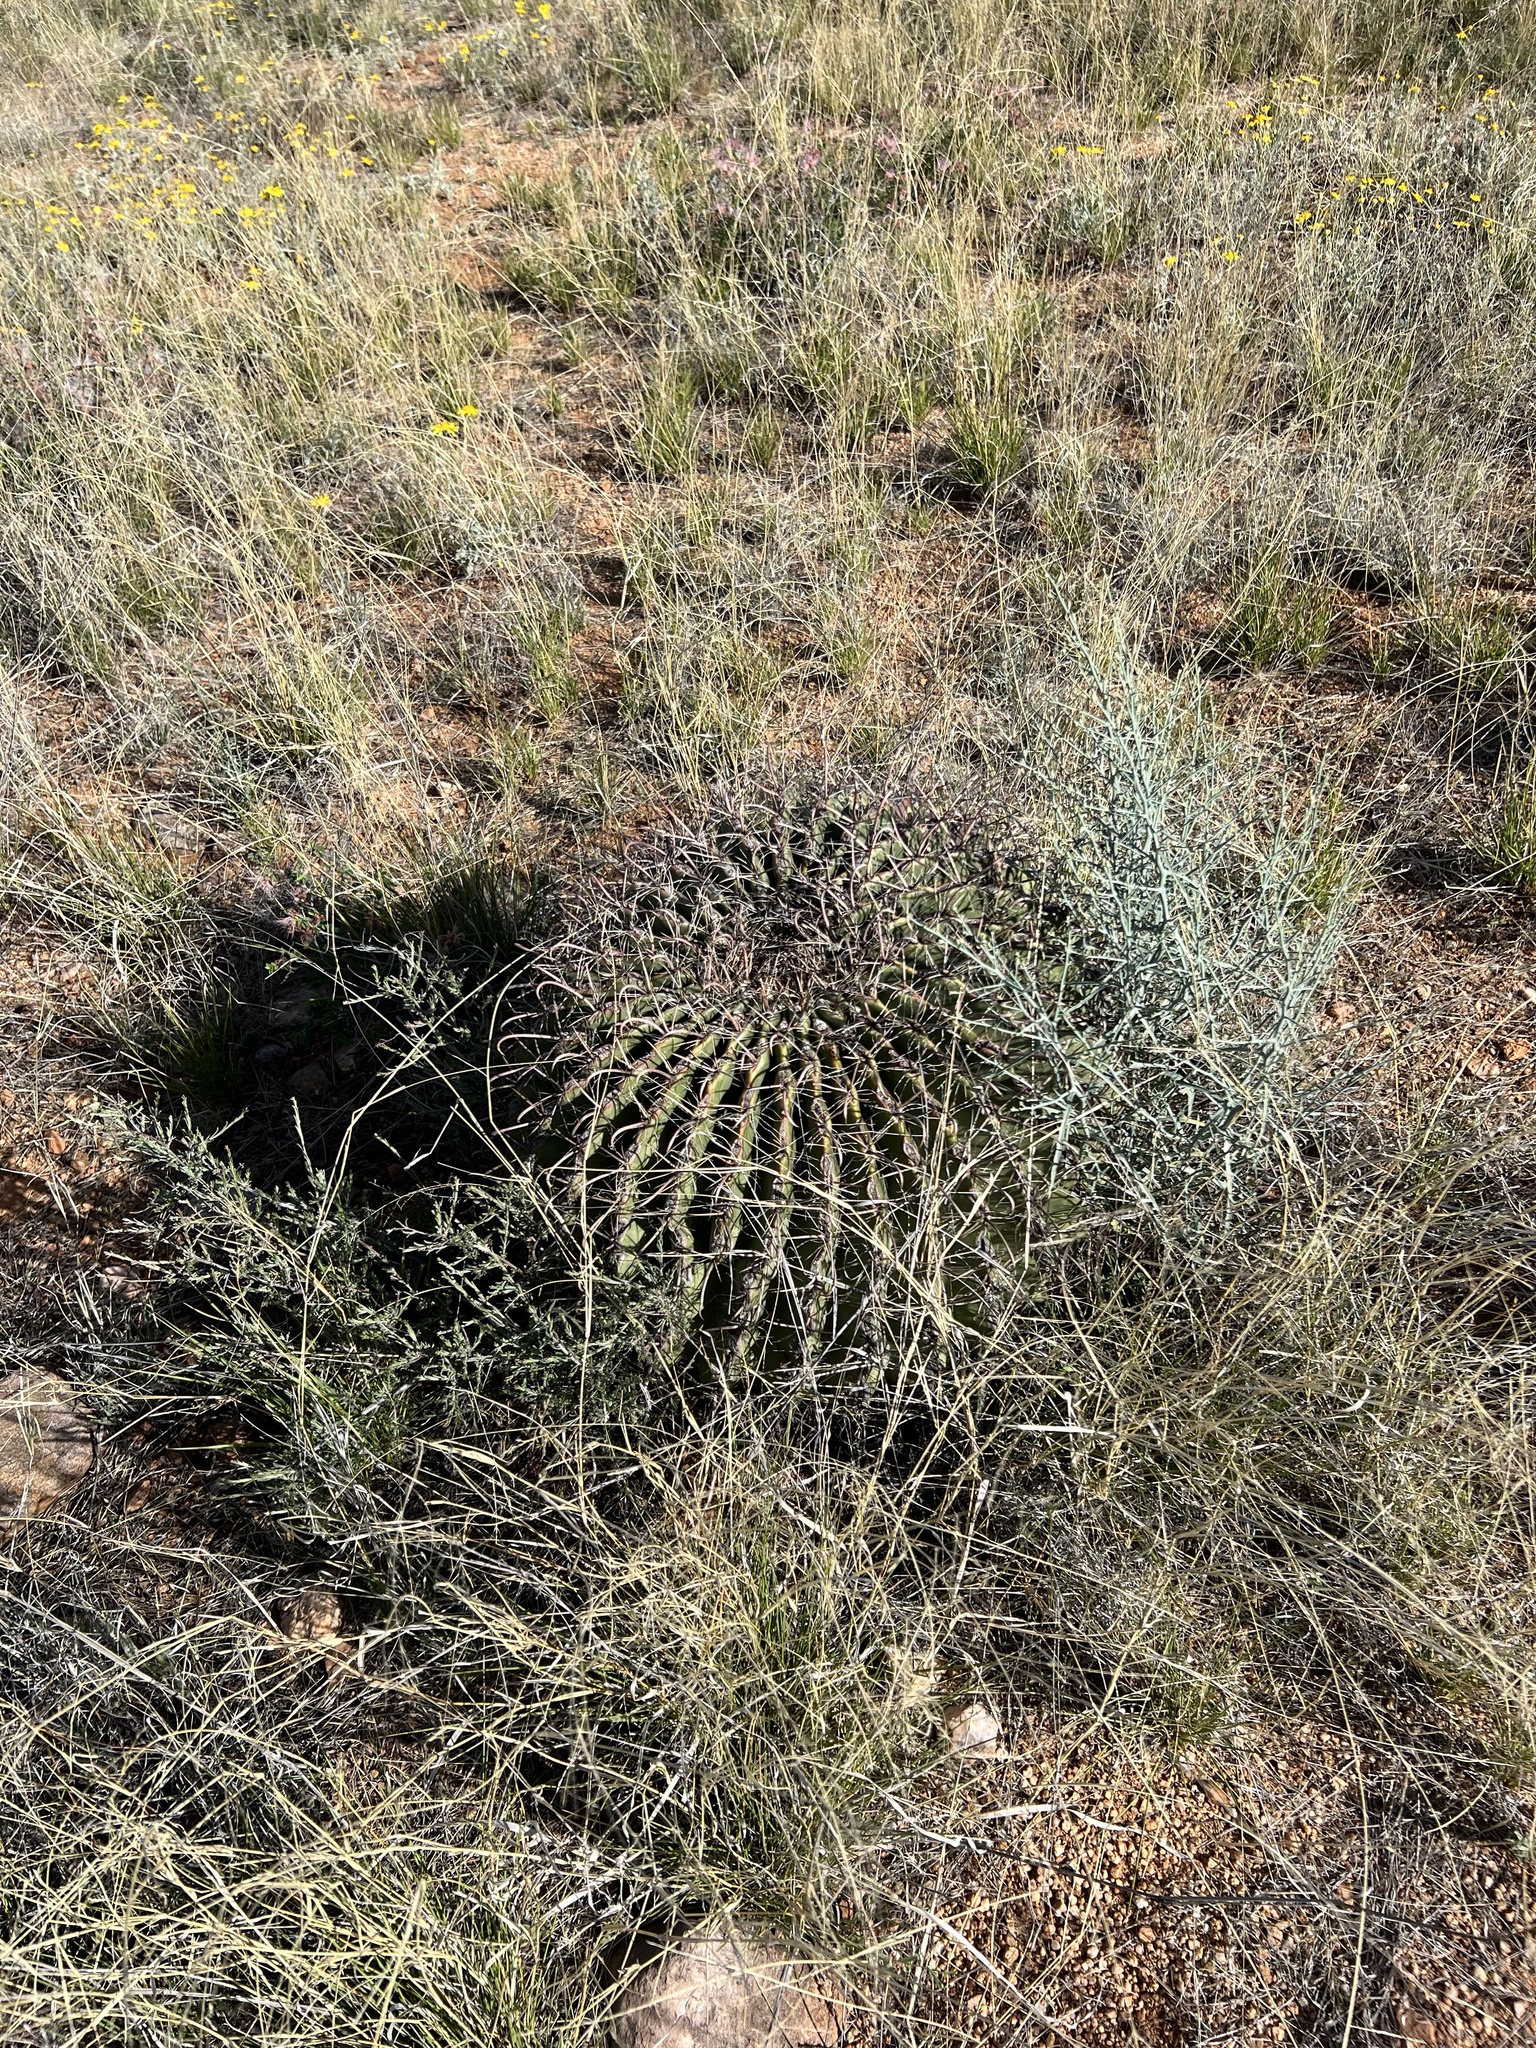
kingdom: Plantae
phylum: Tracheophyta
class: Magnoliopsida
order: Caryophyllales
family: Cactaceae
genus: Ferocactus
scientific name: Ferocactus wislizeni
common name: Candy barrel cactus
